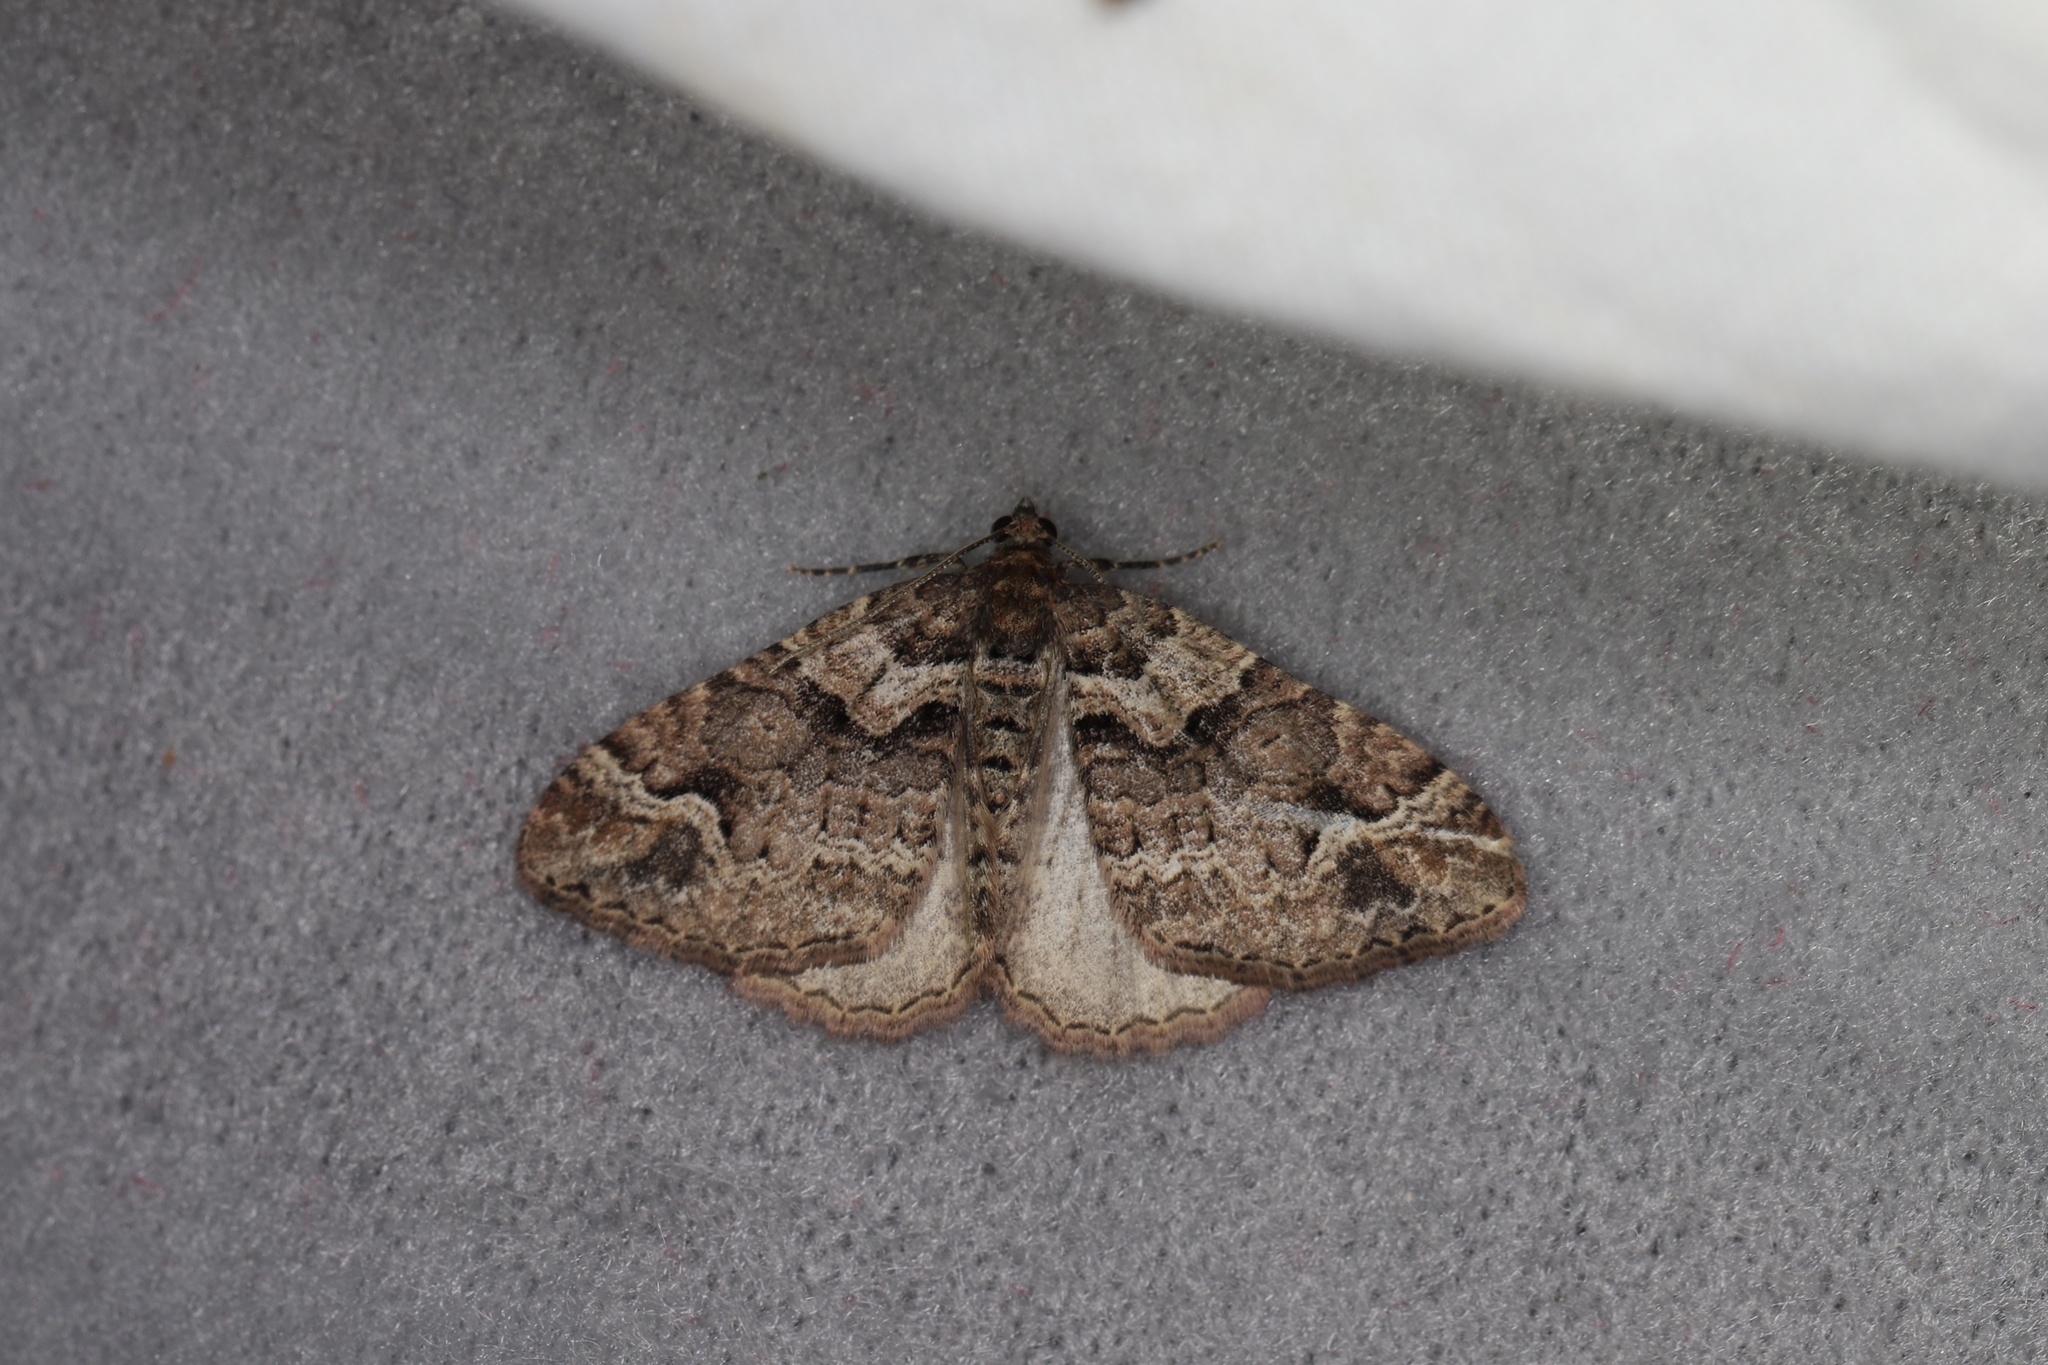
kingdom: Animalia
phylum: Arthropoda
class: Insecta
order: Lepidoptera
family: Geometridae
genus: Catarhoe
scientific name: Catarhoe basochesiata
